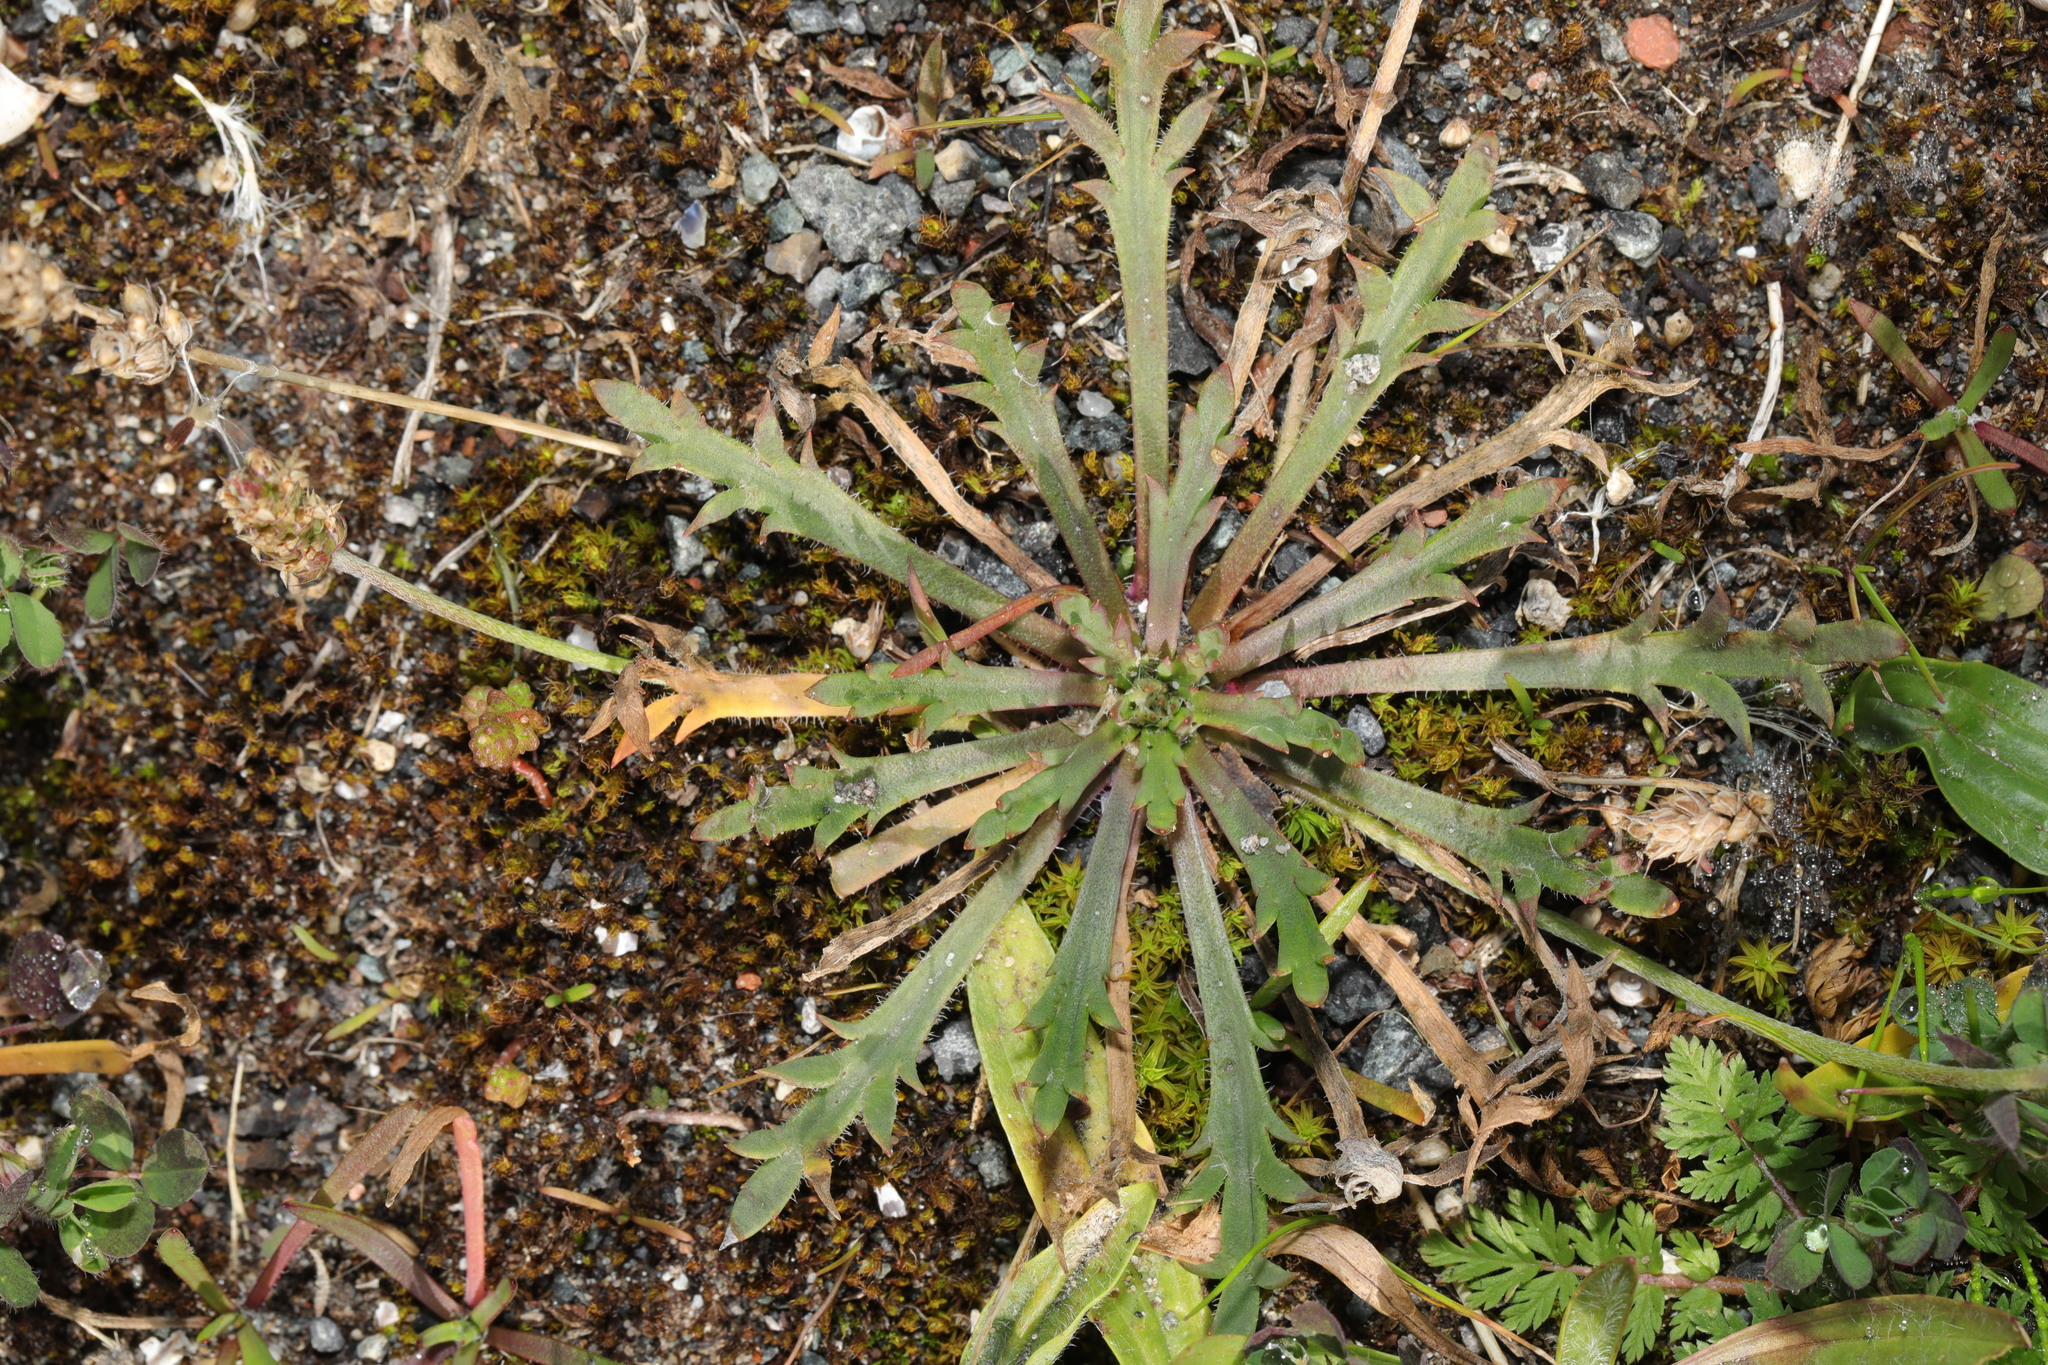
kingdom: Plantae
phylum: Tracheophyta
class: Magnoliopsida
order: Lamiales
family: Plantaginaceae
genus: Plantago
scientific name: Plantago coronopus
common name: Buck's-horn plantain
